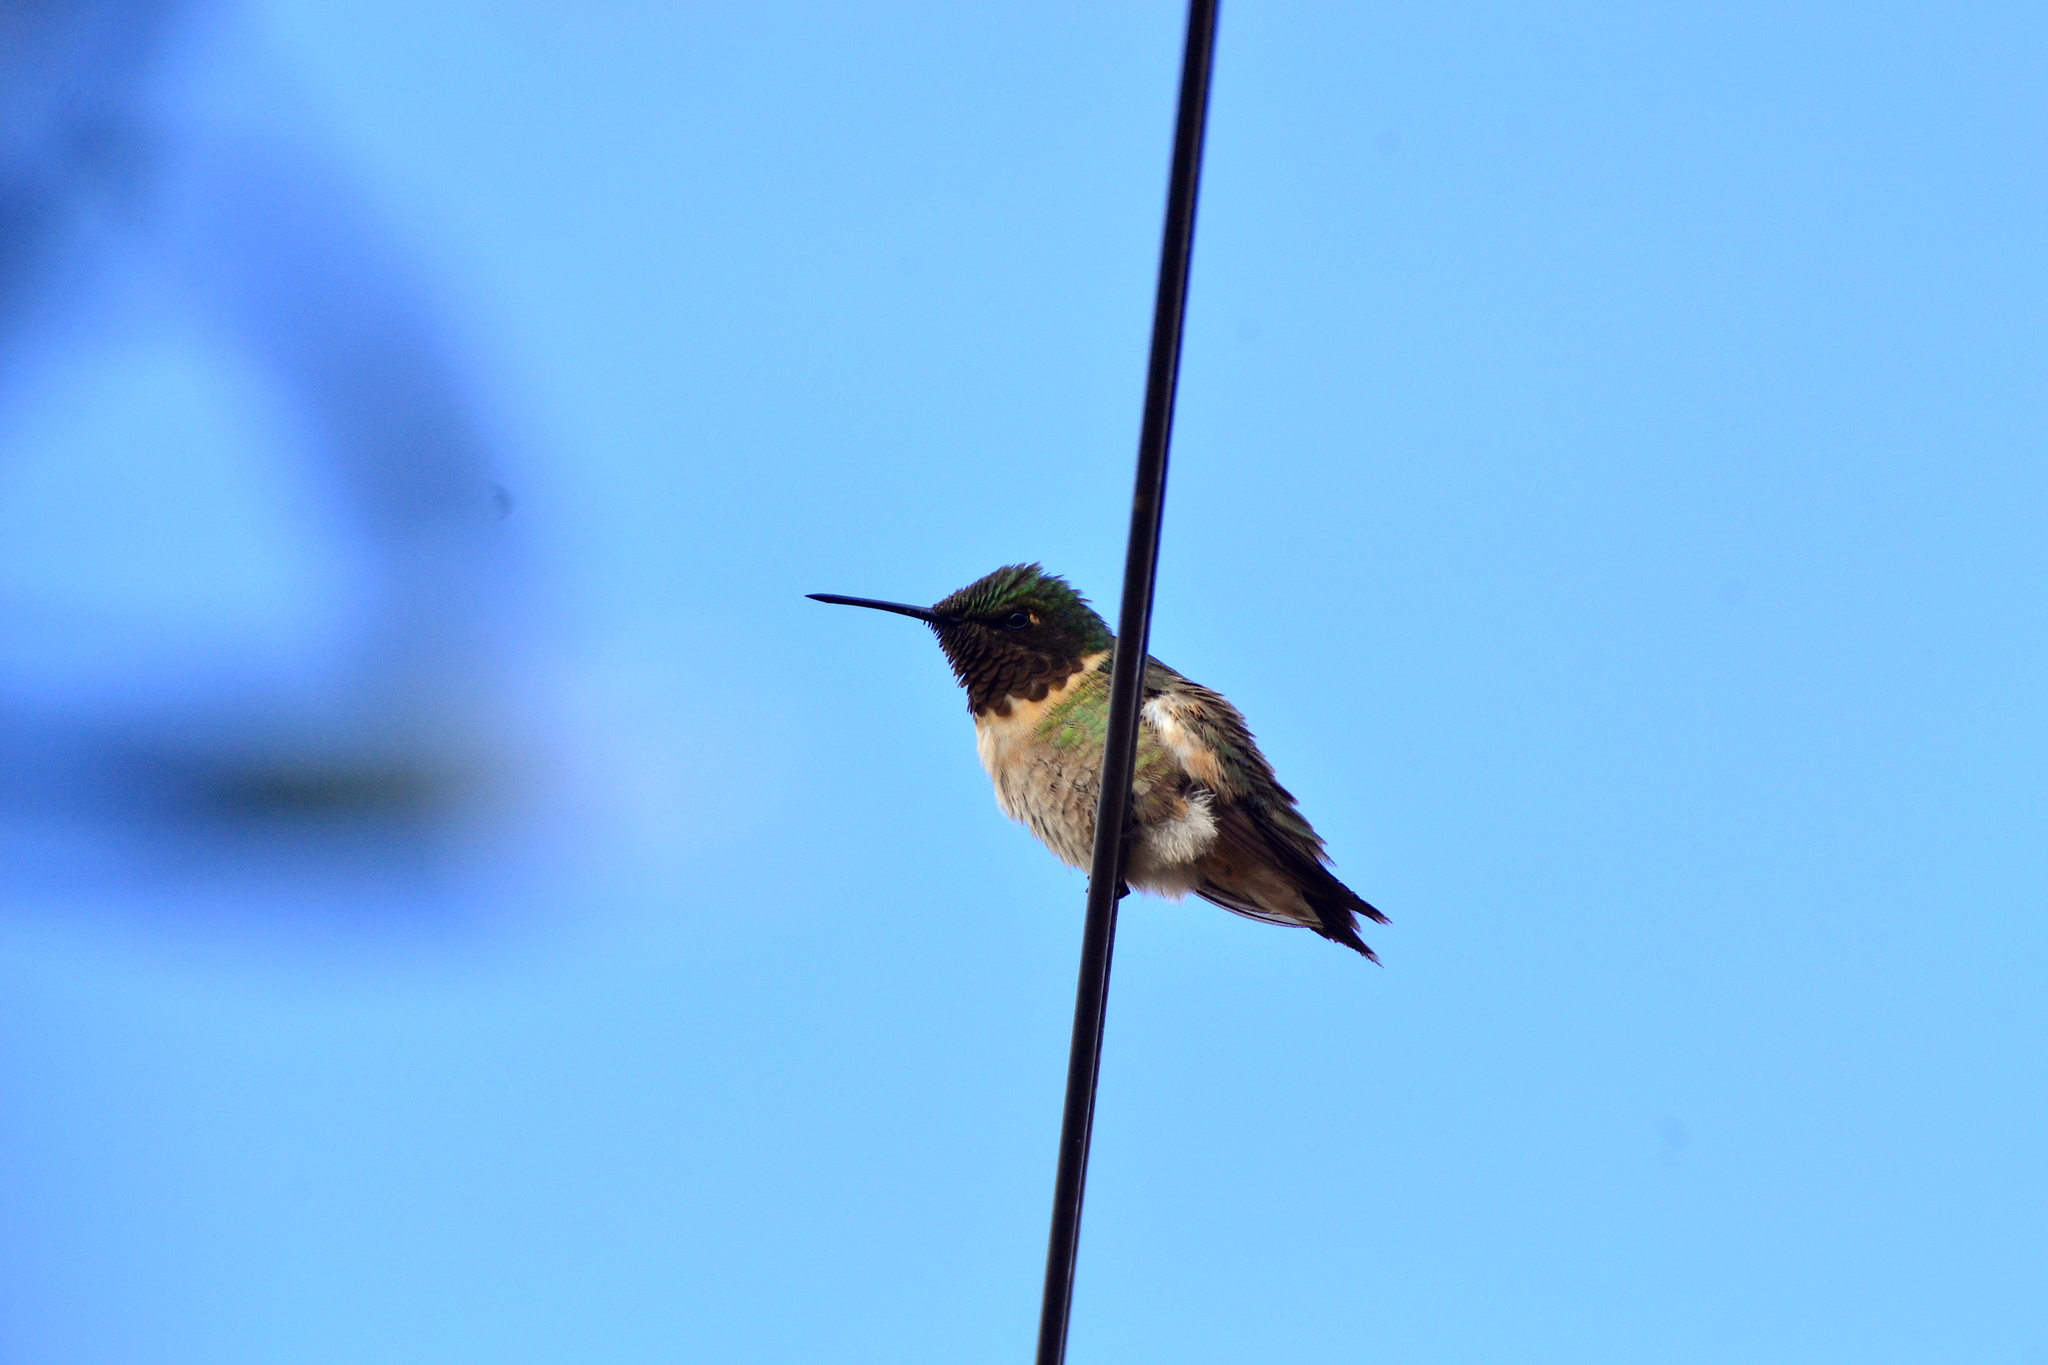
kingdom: Animalia
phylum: Chordata
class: Aves
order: Apodiformes
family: Trochilidae
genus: Archilochus
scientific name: Archilochus colubris
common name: Ruby-throated hummingbird
